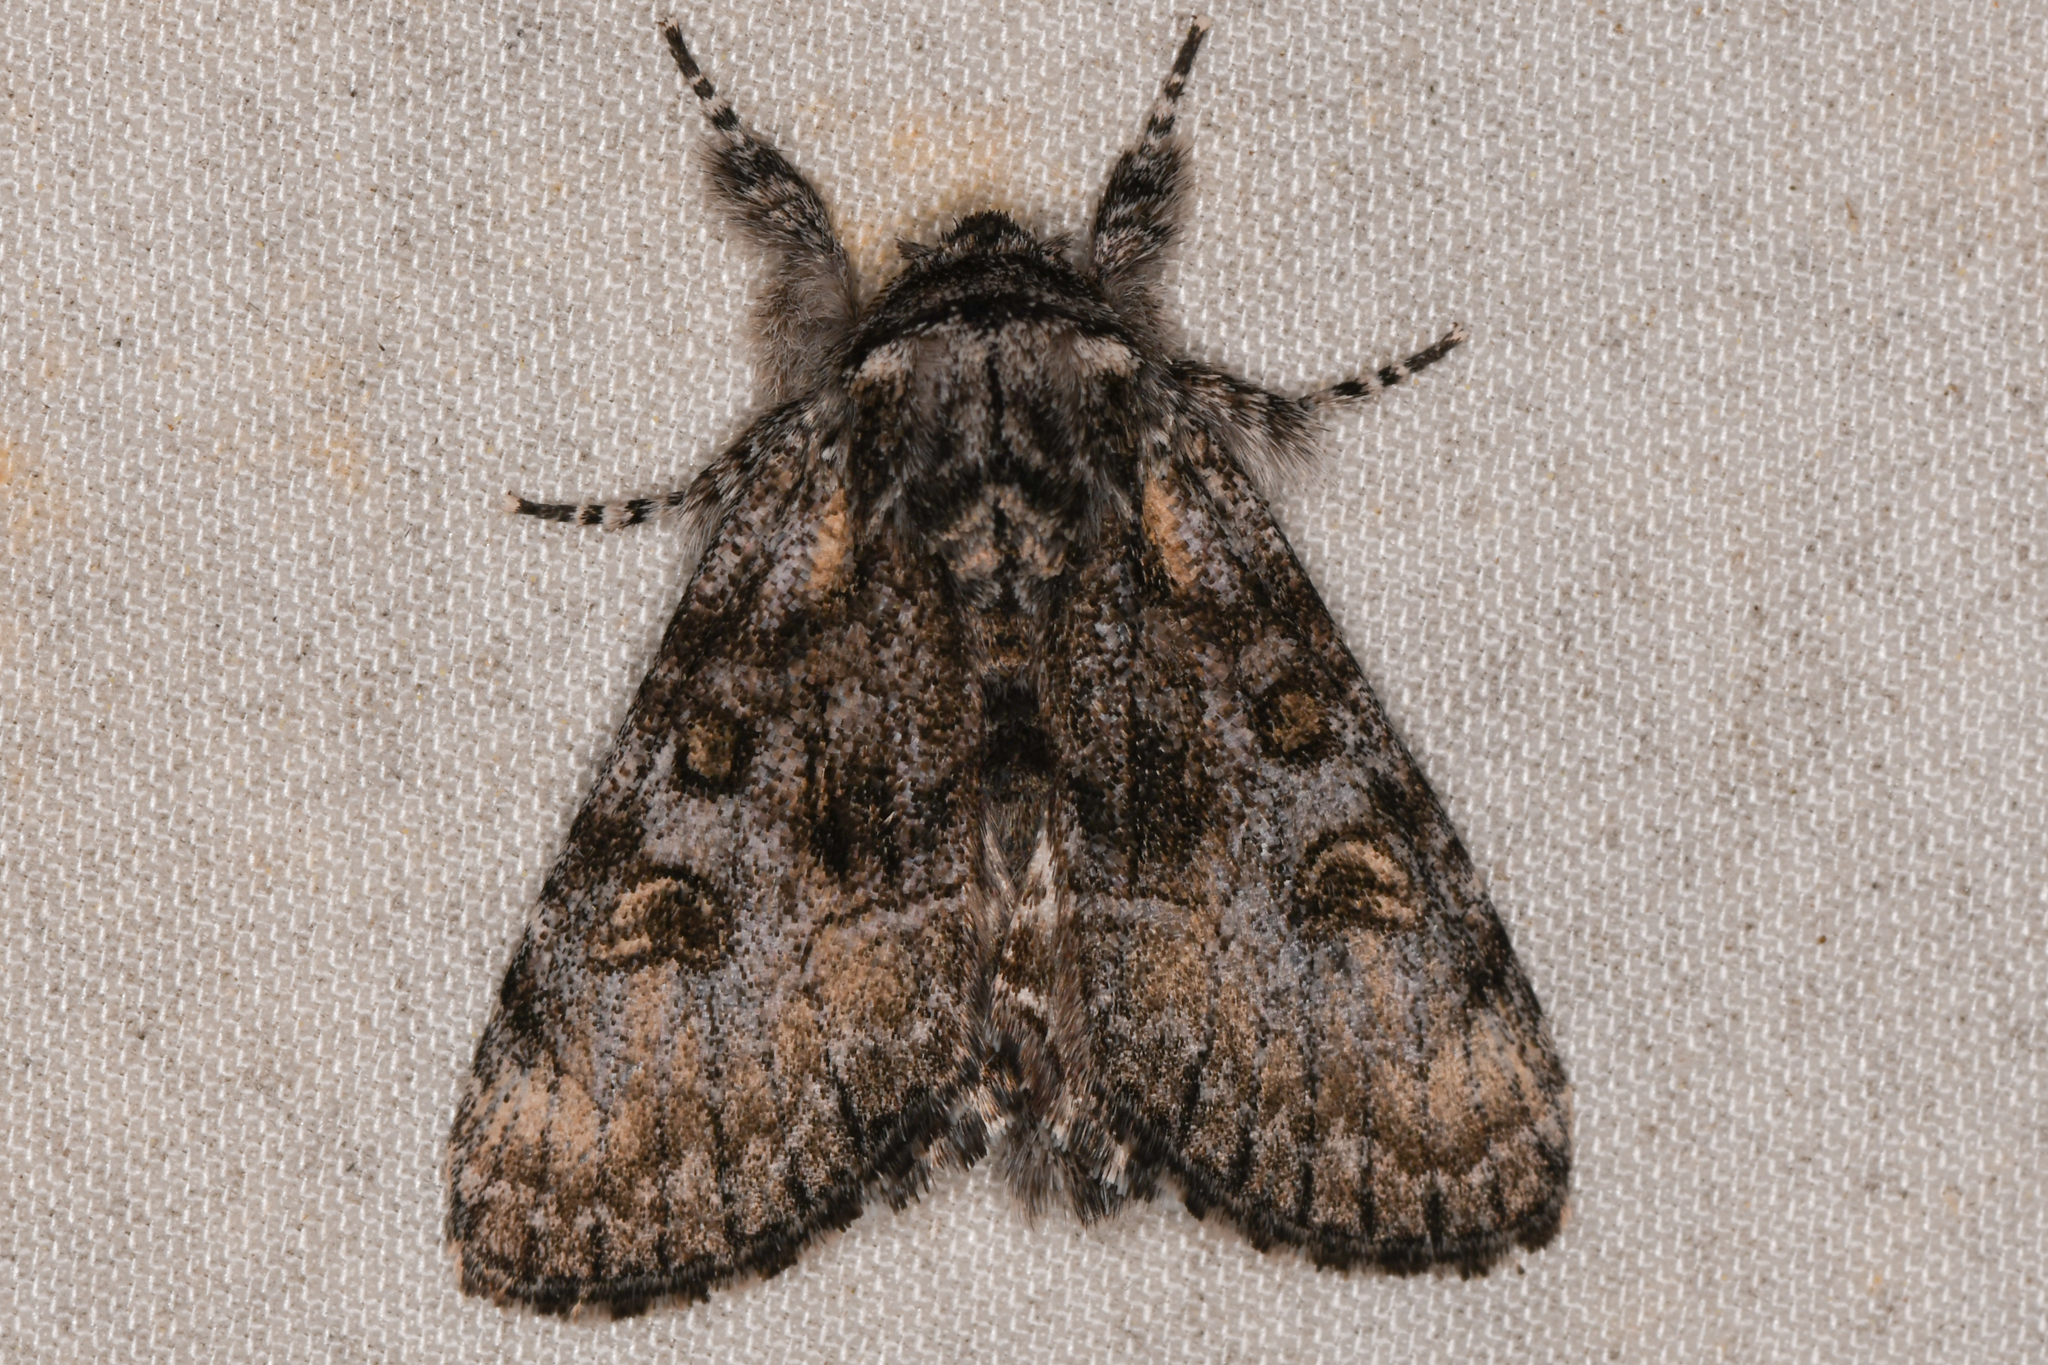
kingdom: Animalia
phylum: Arthropoda
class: Insecta
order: Lepidoptera
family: Noctuidae
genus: Raphia
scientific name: Raphia frater
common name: Brother
